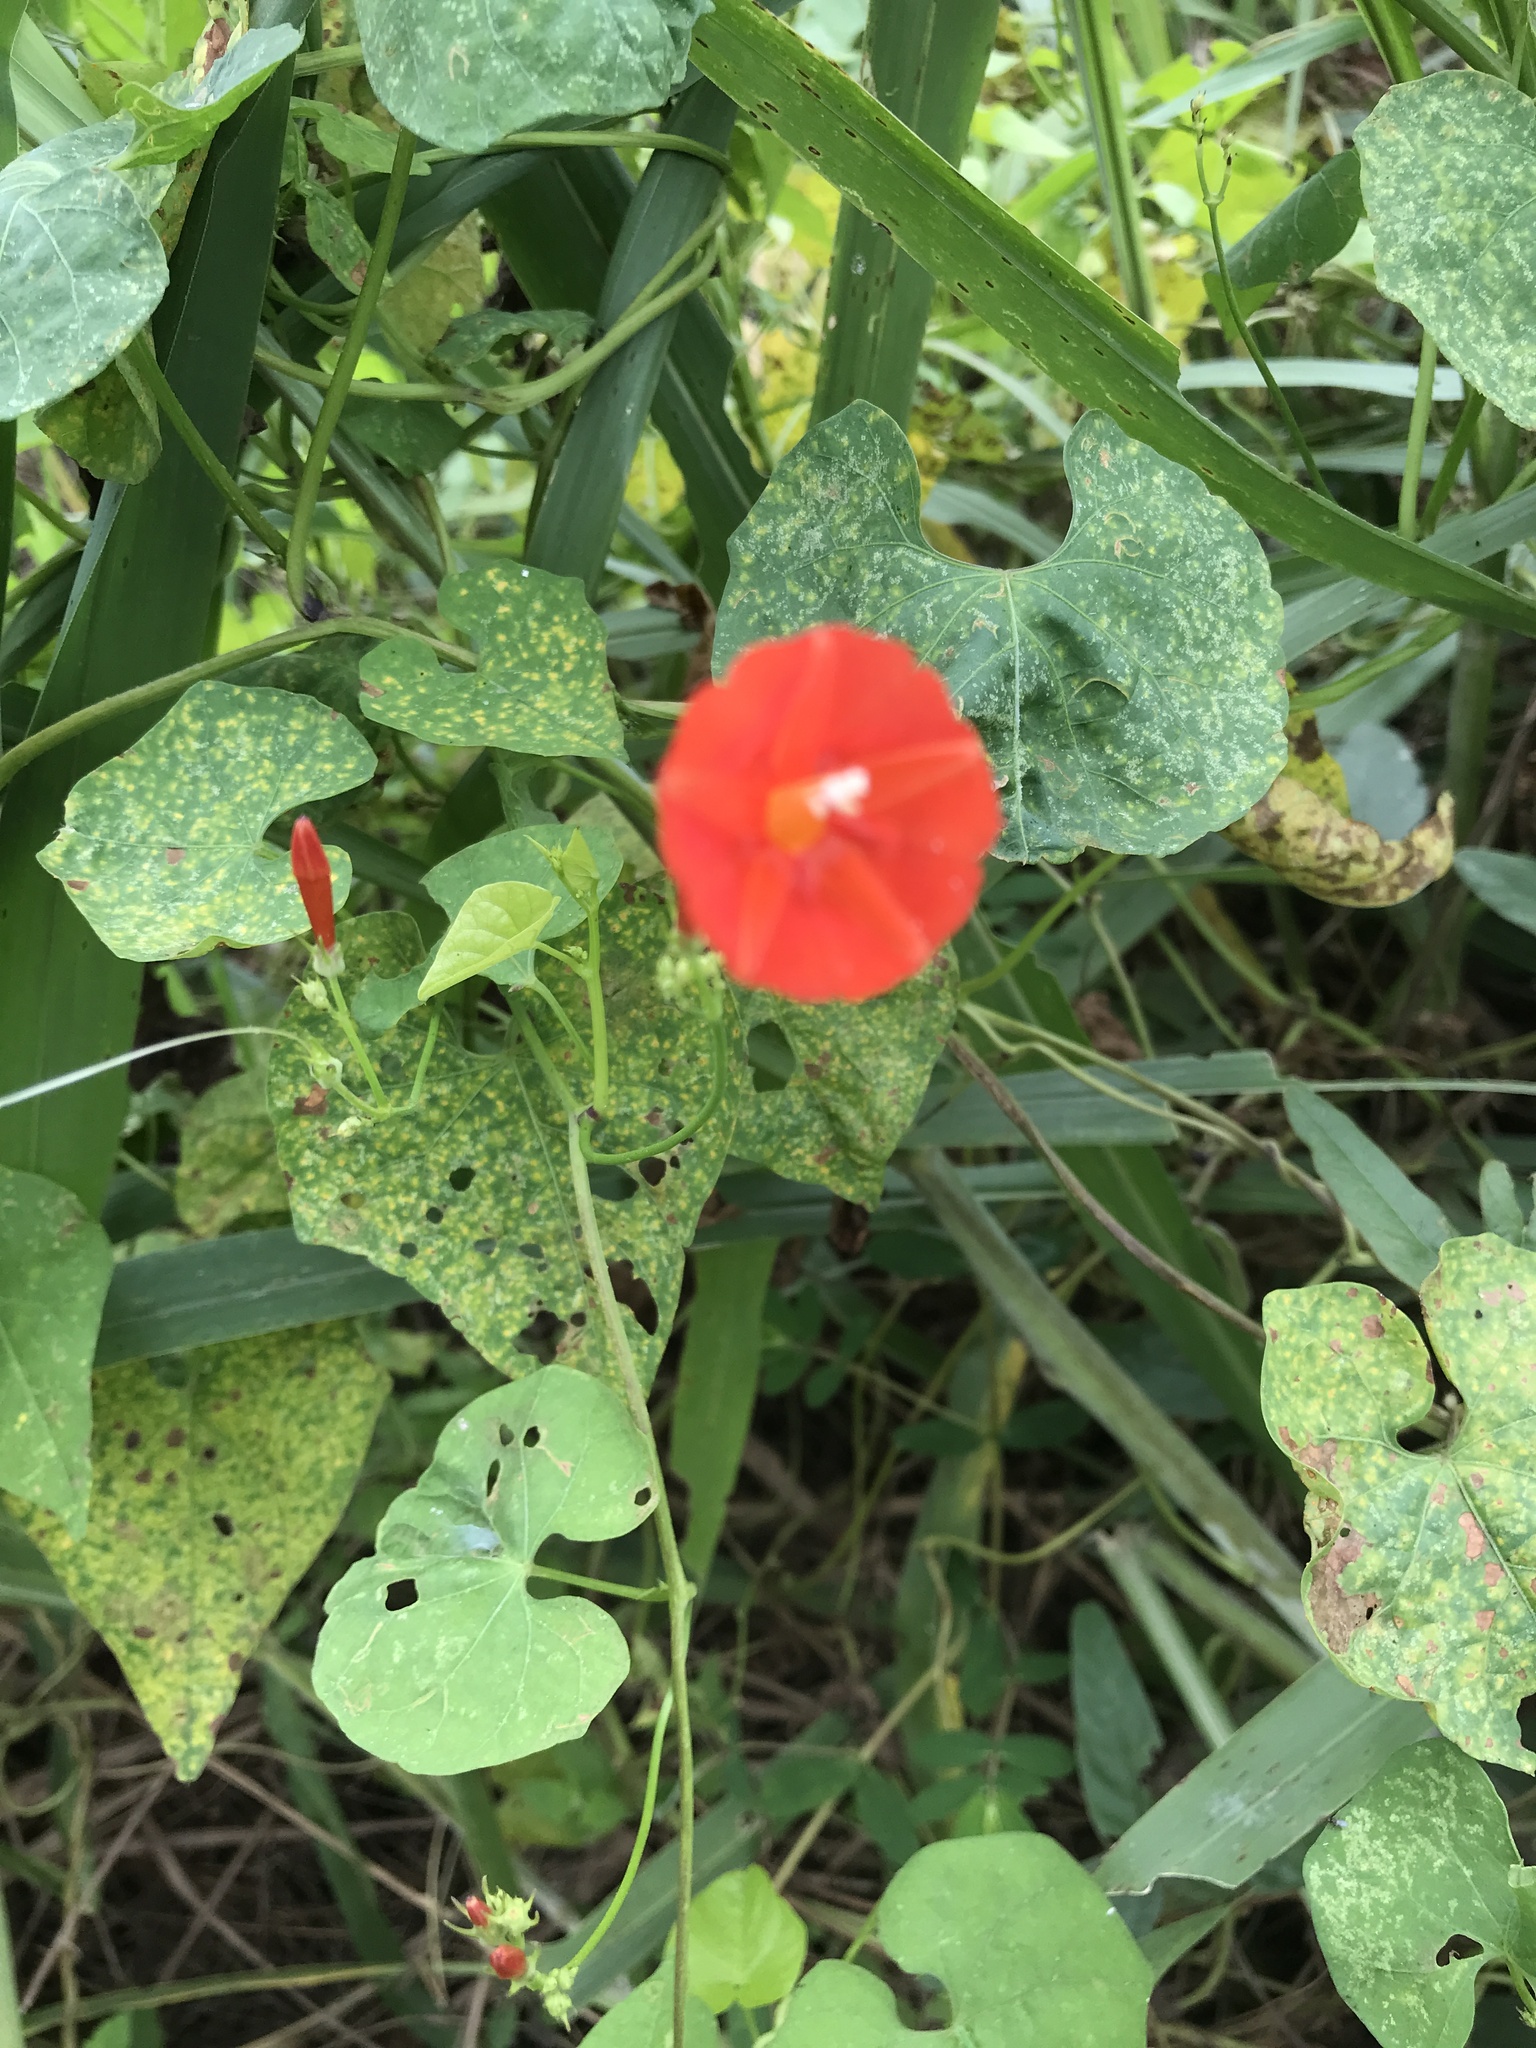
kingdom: Plantae
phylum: Tracheophyta
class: Magnoliopsida
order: Solanales
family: Convolvulaceae
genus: Ipomoea
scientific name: Ipomoea hederifolia
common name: Ivy-leaf morning-glory
